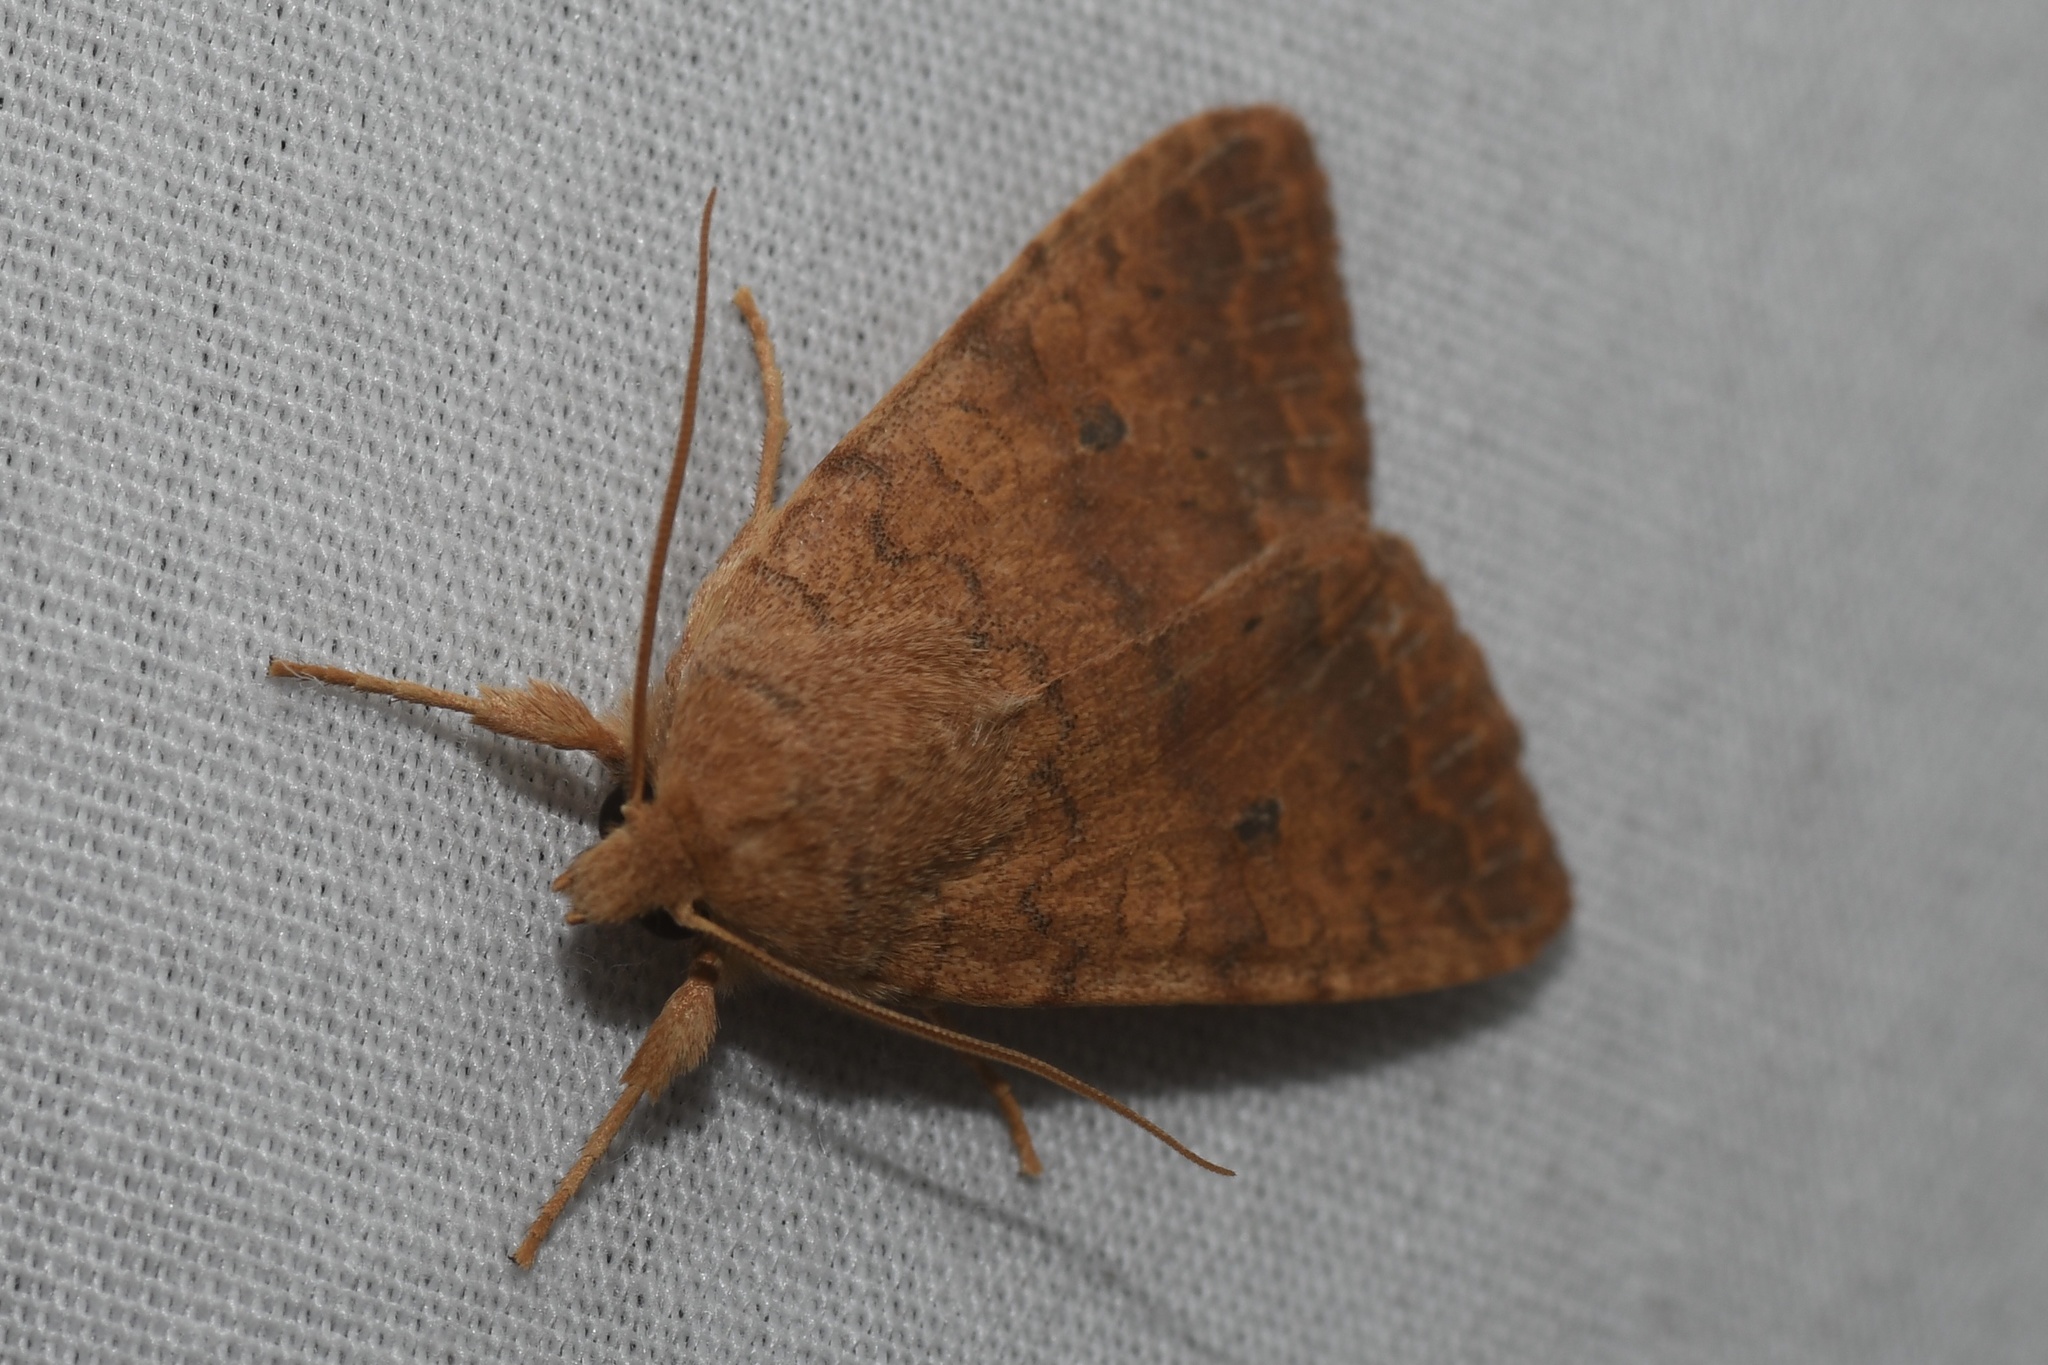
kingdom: Animalia
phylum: Arthropoda
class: Insecta
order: Lepidoptera
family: Noctuidae
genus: Agrochola
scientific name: Agrochola bicolorago
